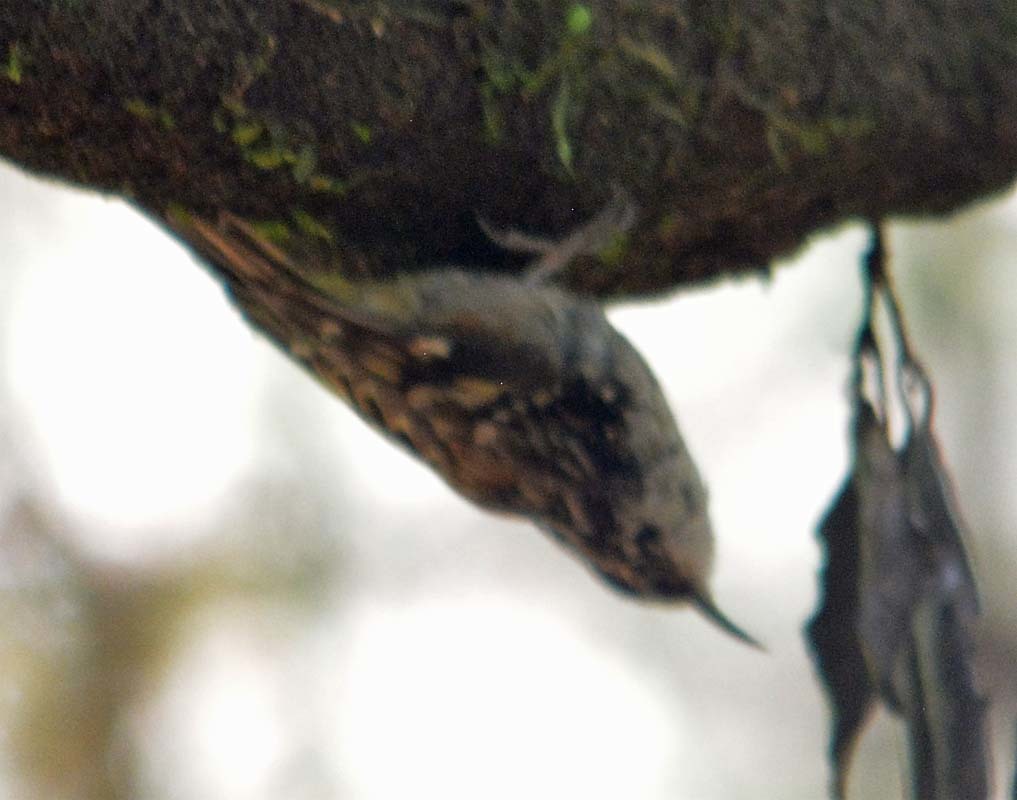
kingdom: Animalia
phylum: Chordata
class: Aves
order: Passeriformes
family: Certhiidae
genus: Certhia
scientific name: Certhia americana
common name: Brown creeper
